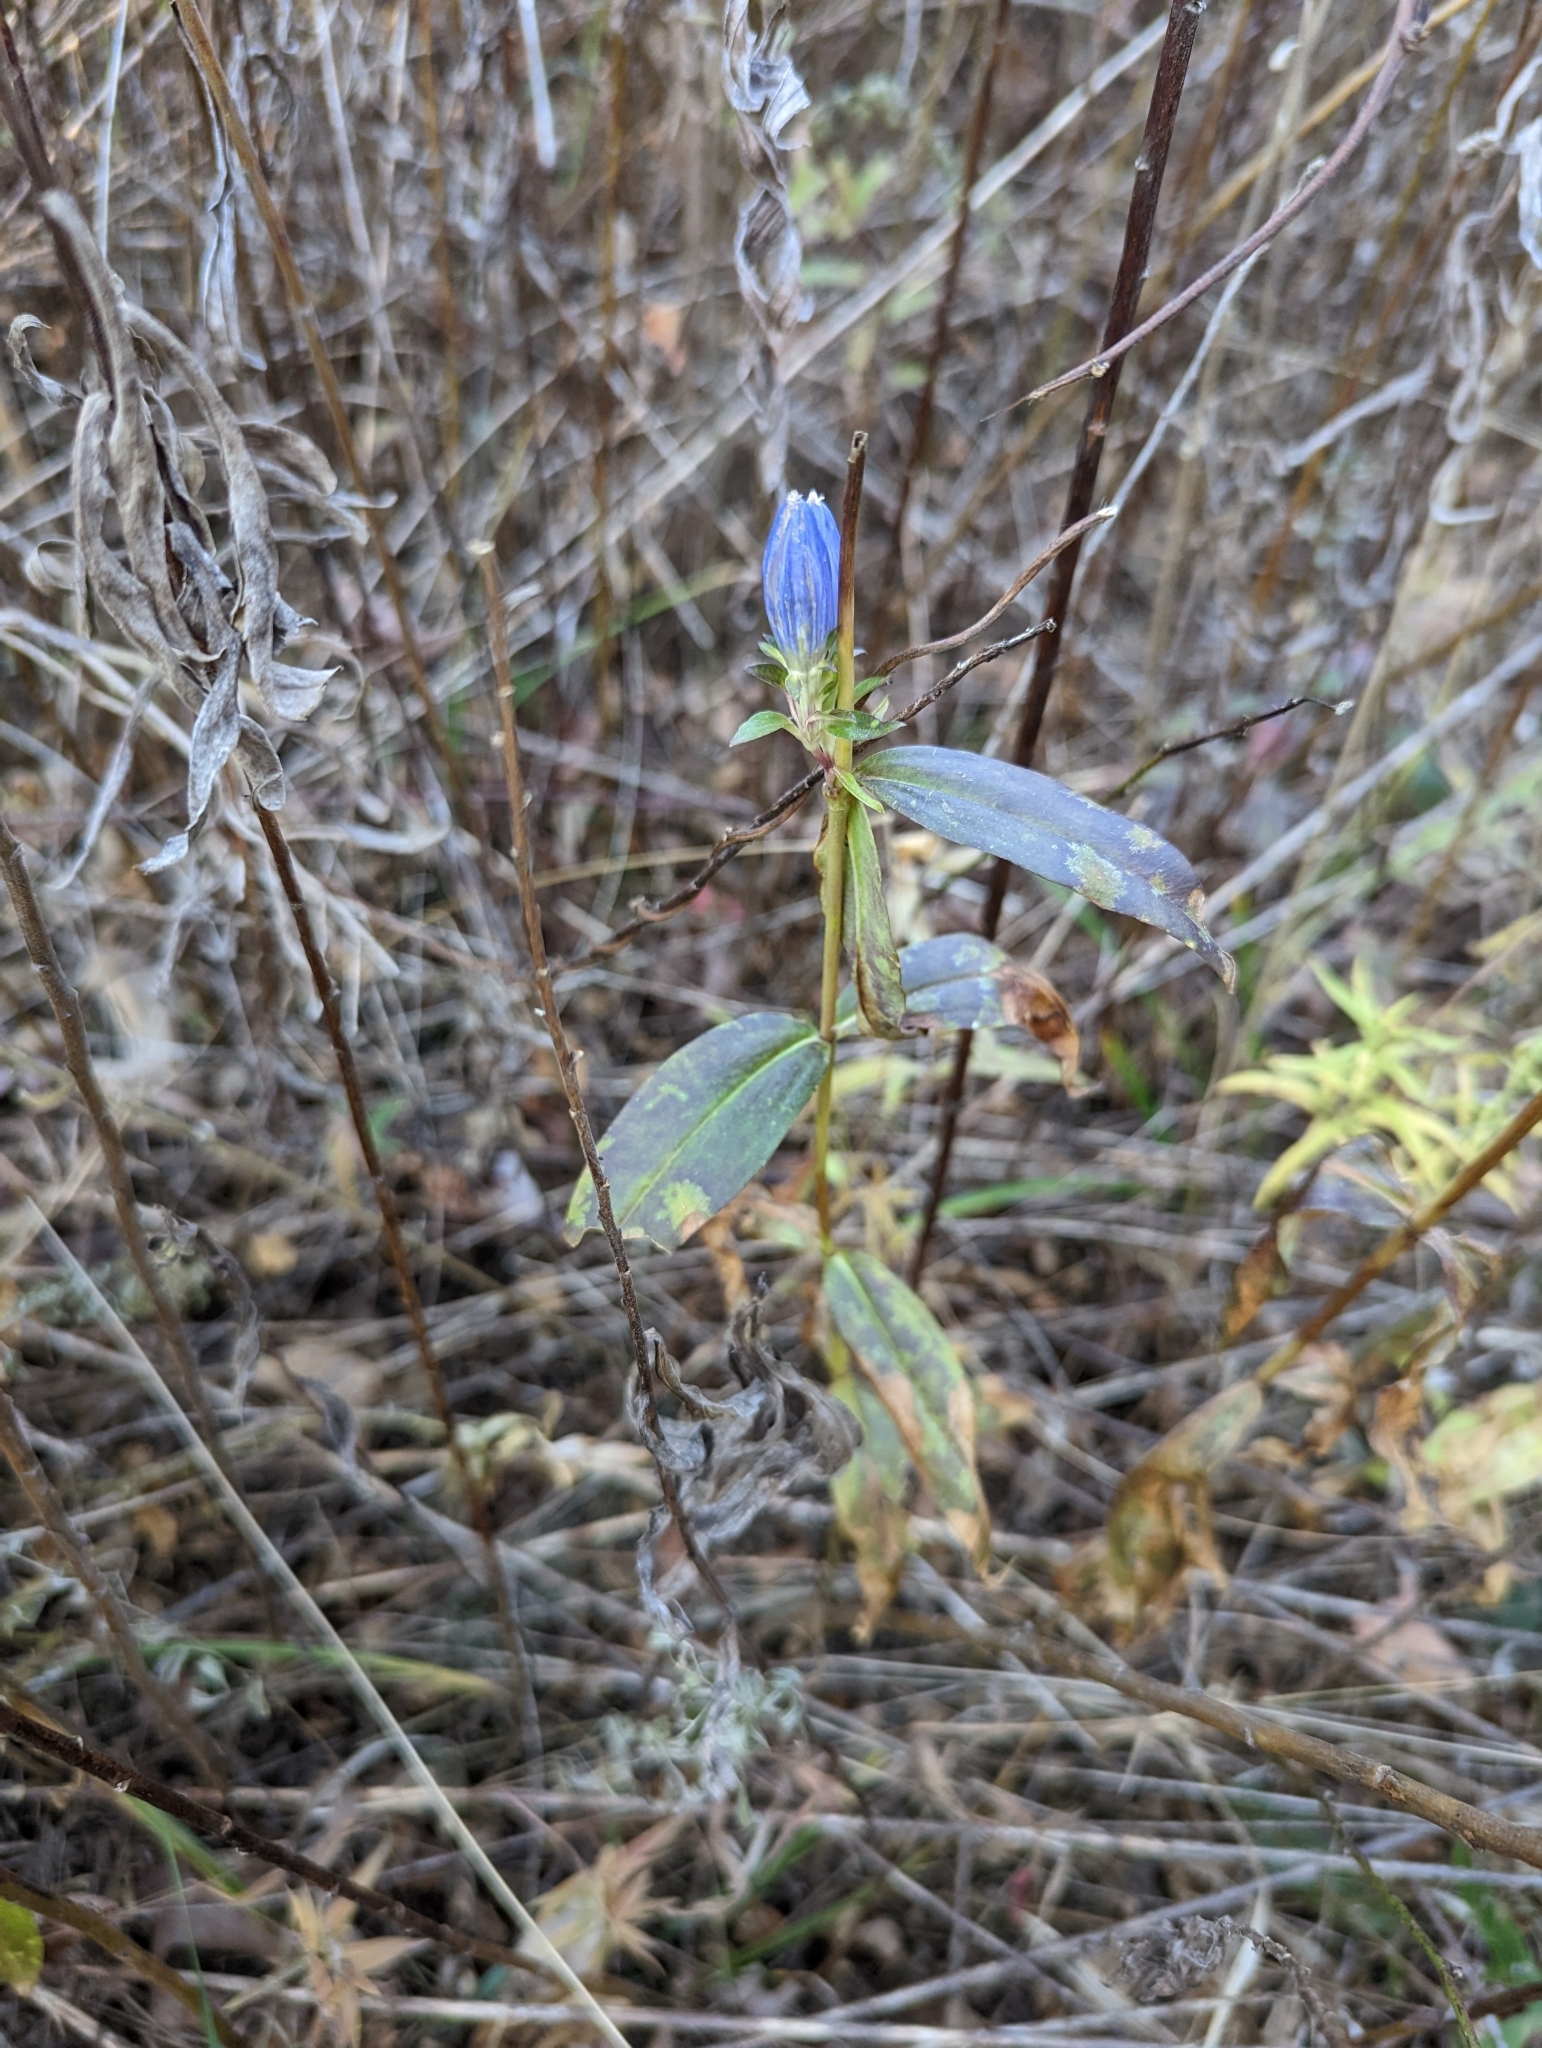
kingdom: Plantae
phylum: Tracheophyta
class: Magnoliopsida
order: Gentianales
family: Gentianaceae
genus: Gentiana
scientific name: Gentiana andrewsii
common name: Bottle gentian
